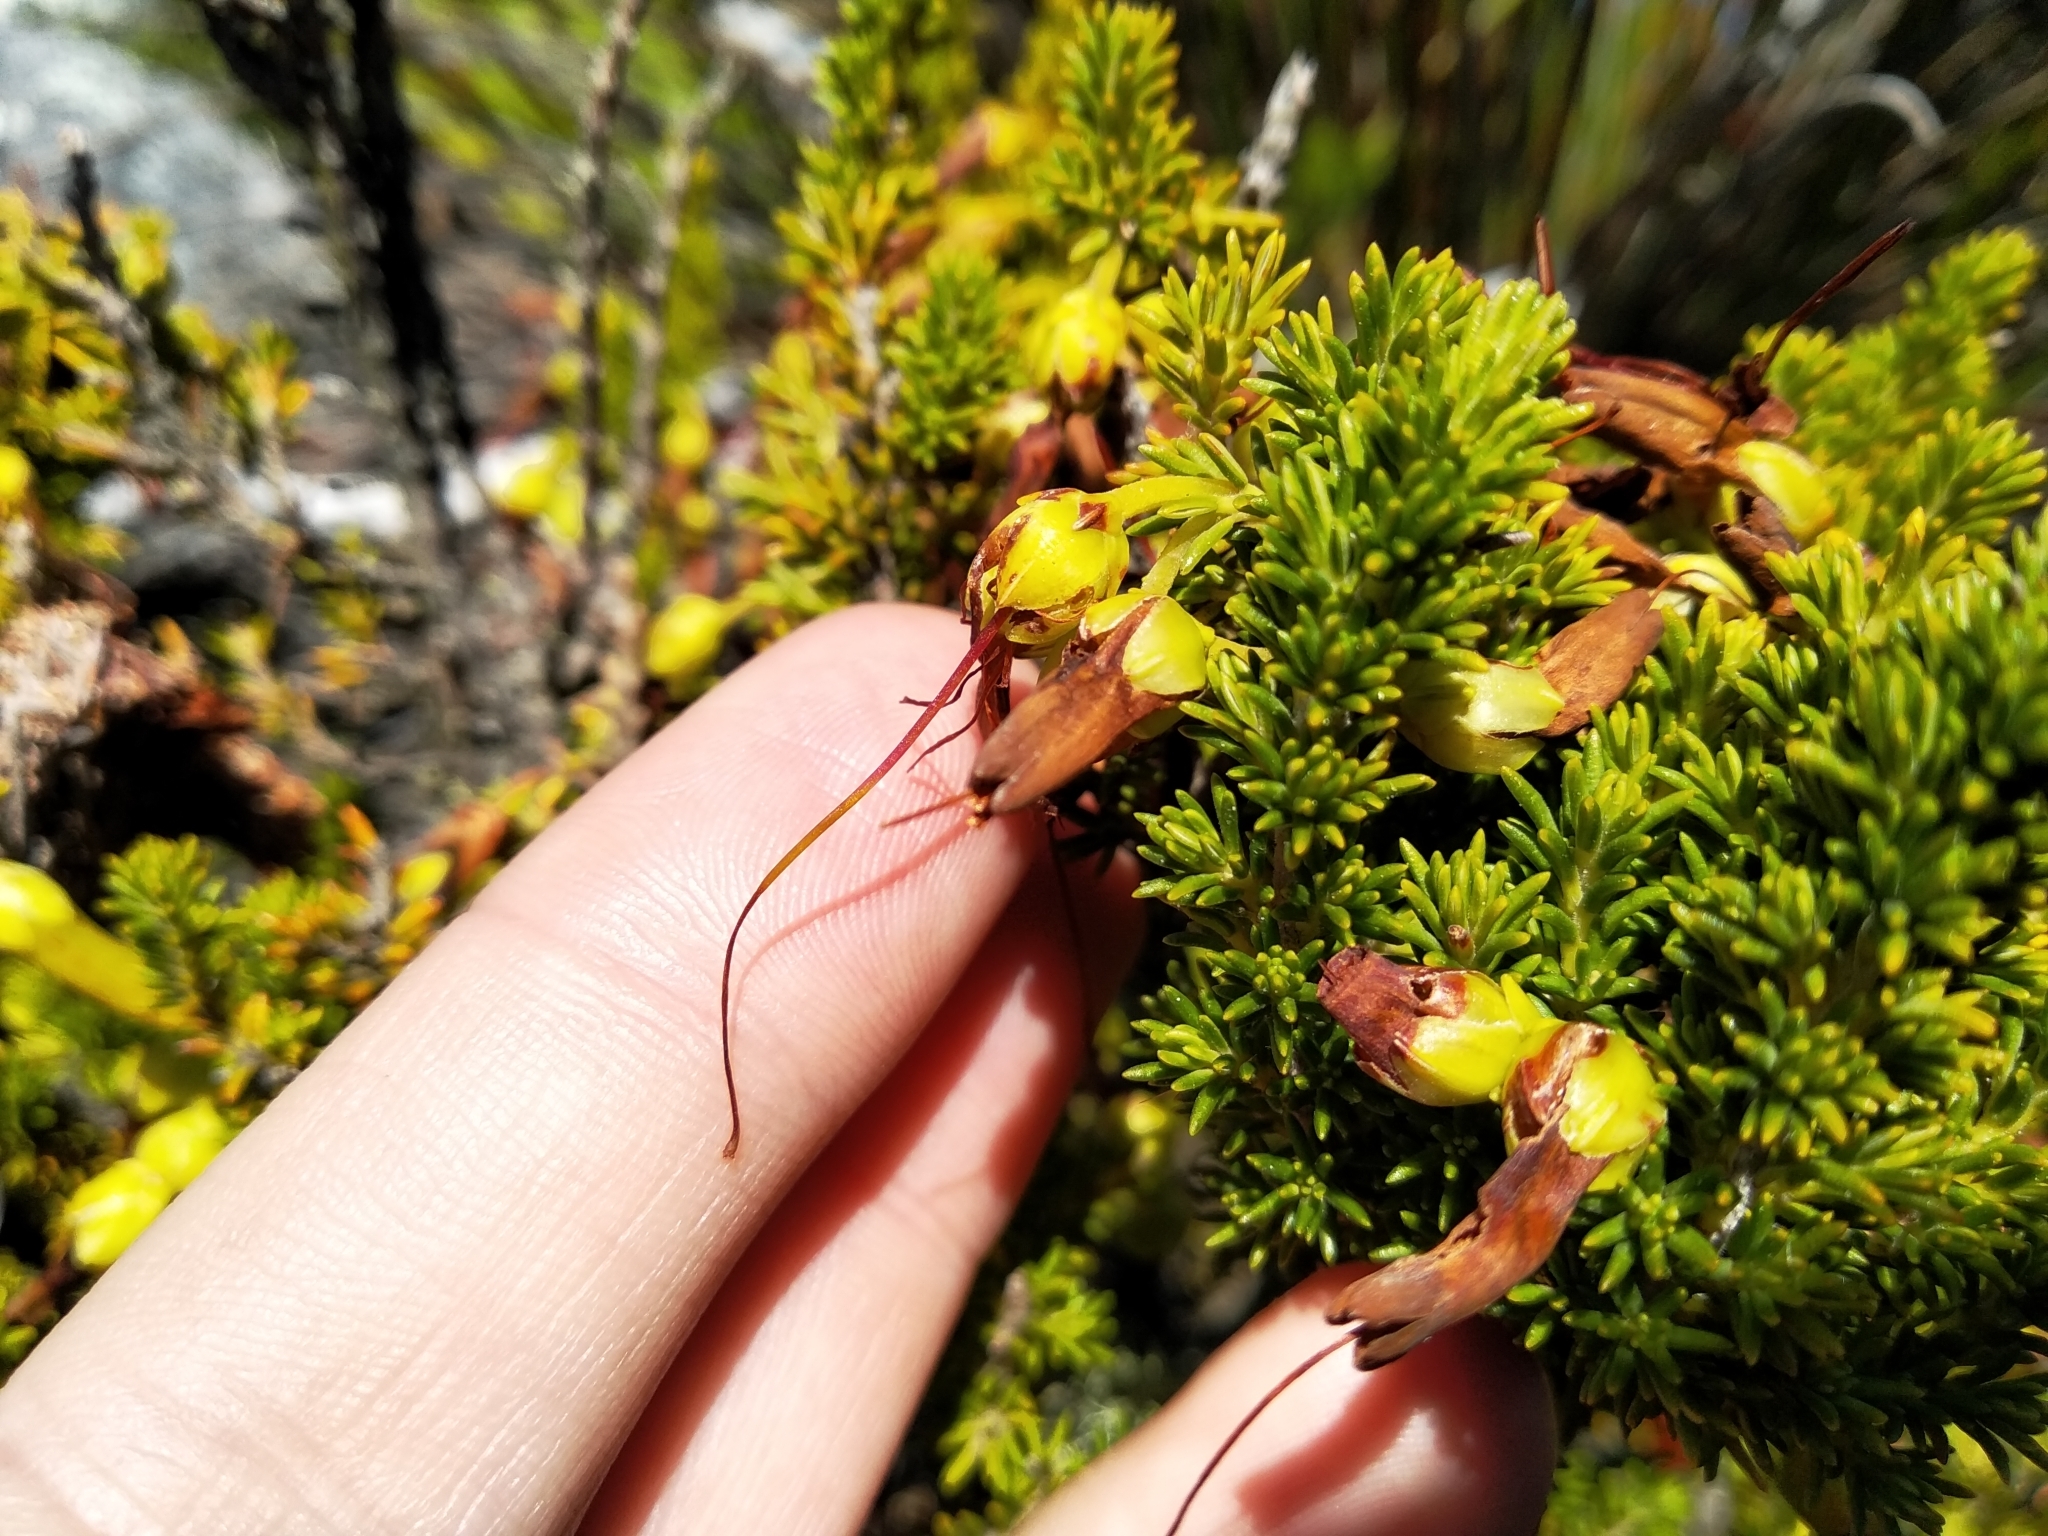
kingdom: Plantae
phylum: Tracheophyta
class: Magnoliopsida
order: Ericales
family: Ericaceae
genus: Erica
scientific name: Erica coccinea
